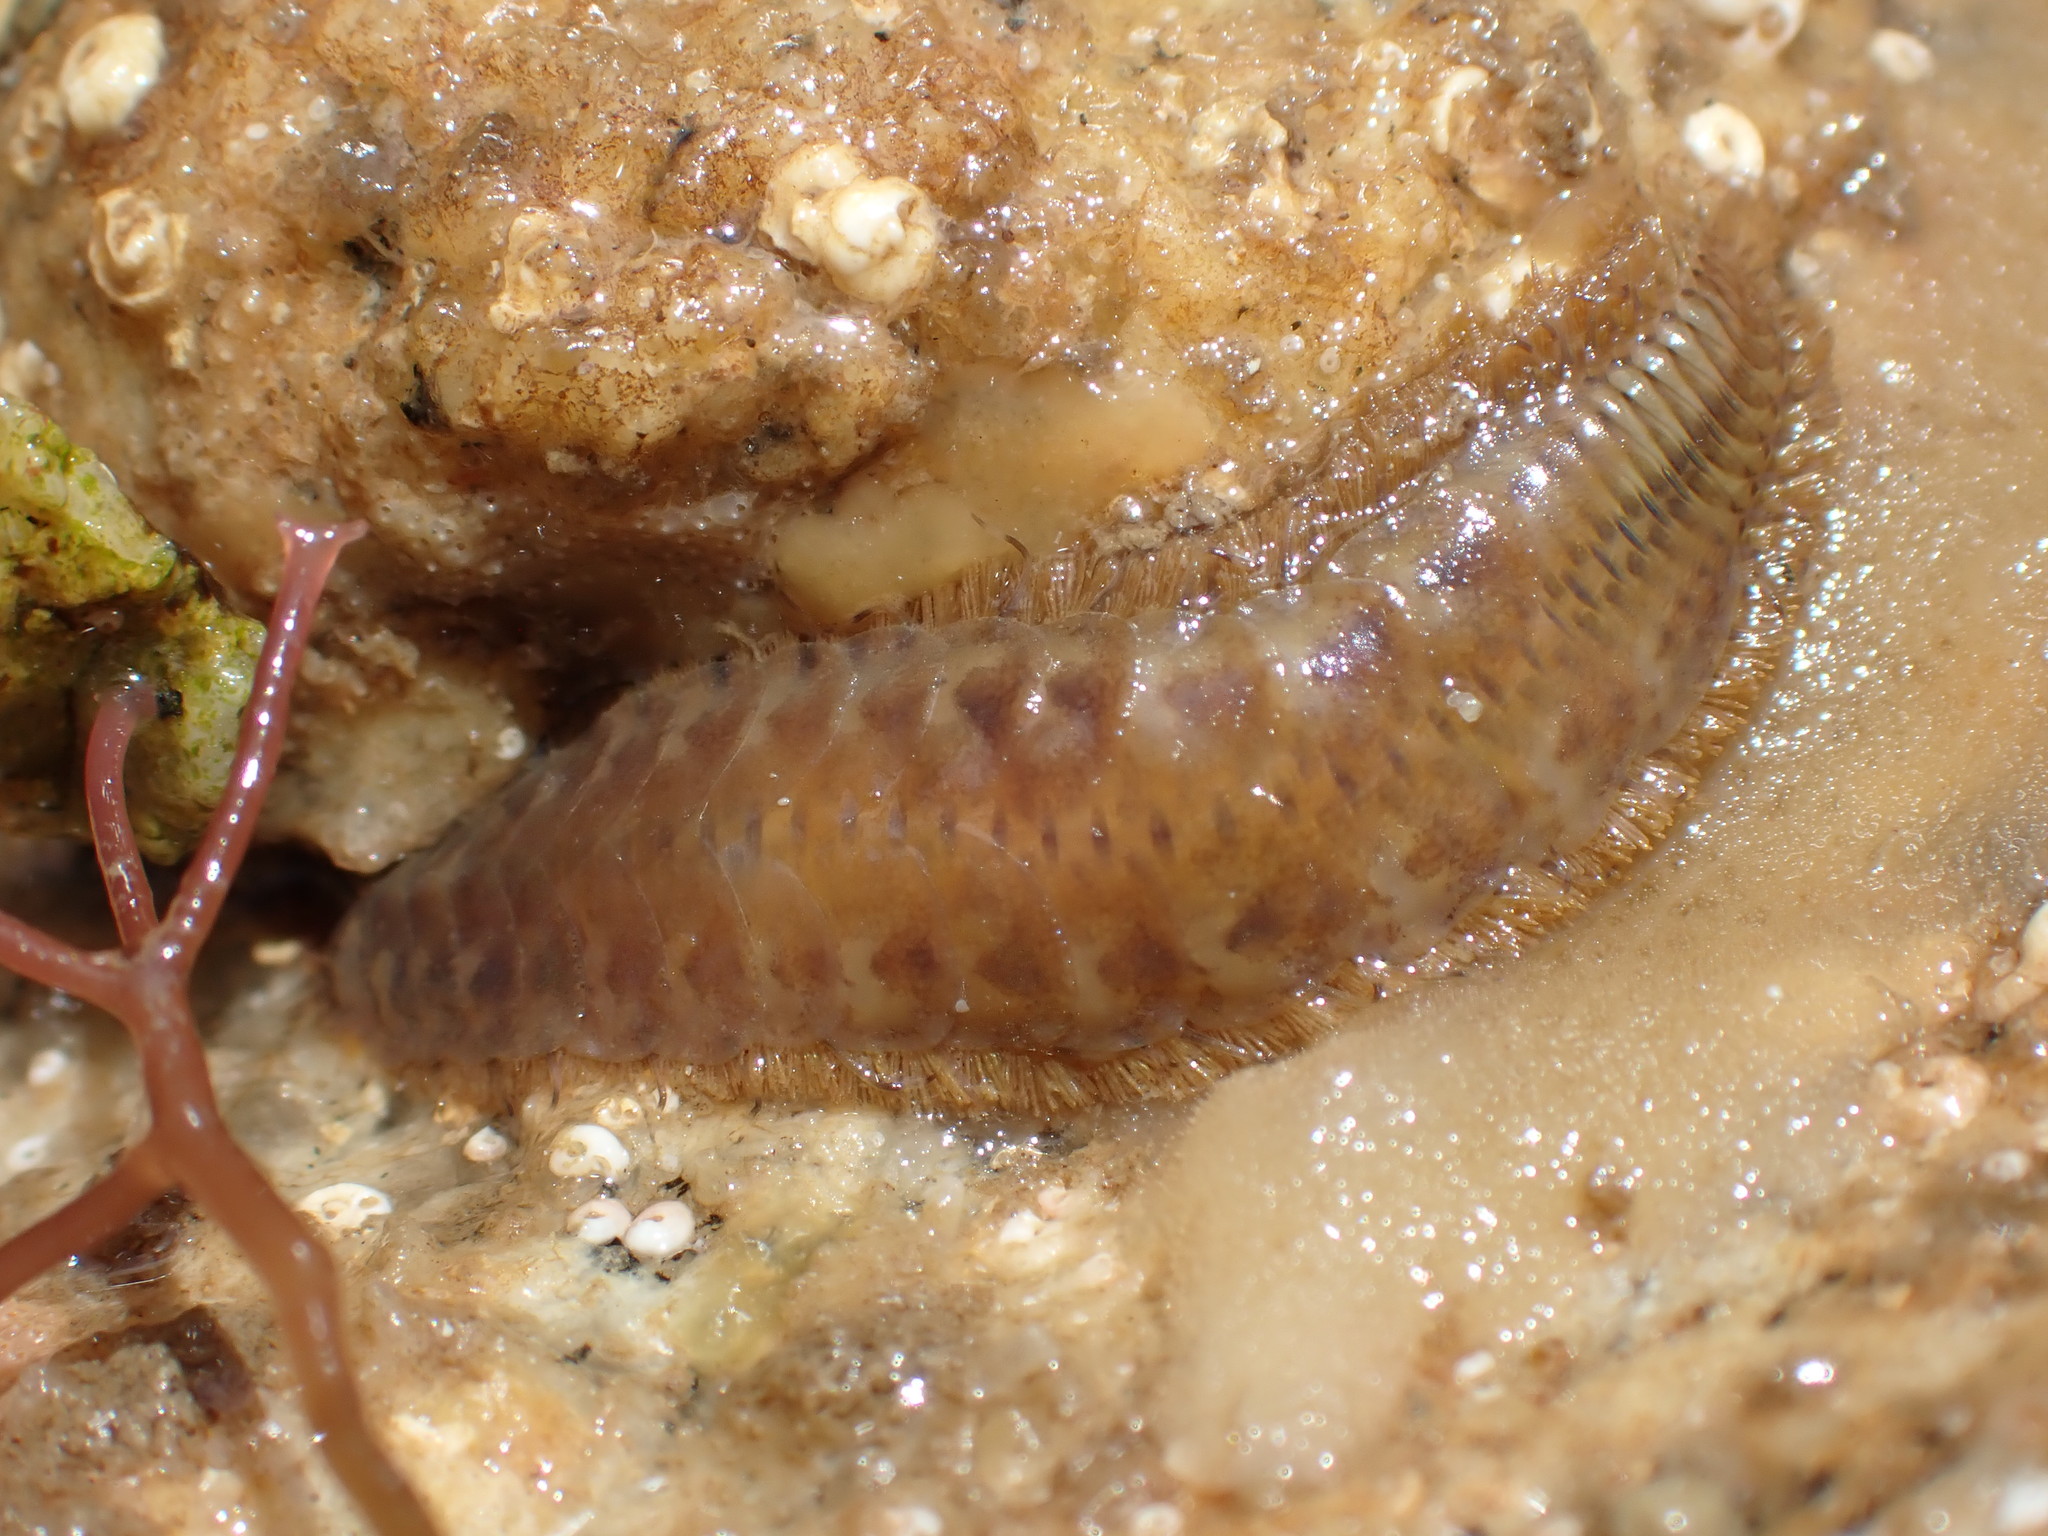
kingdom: Animalia
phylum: Annelida
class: Polychaeta
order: Phyllodocida
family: Polynoidae
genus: Harmothoe
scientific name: Harmothoe extenuata
